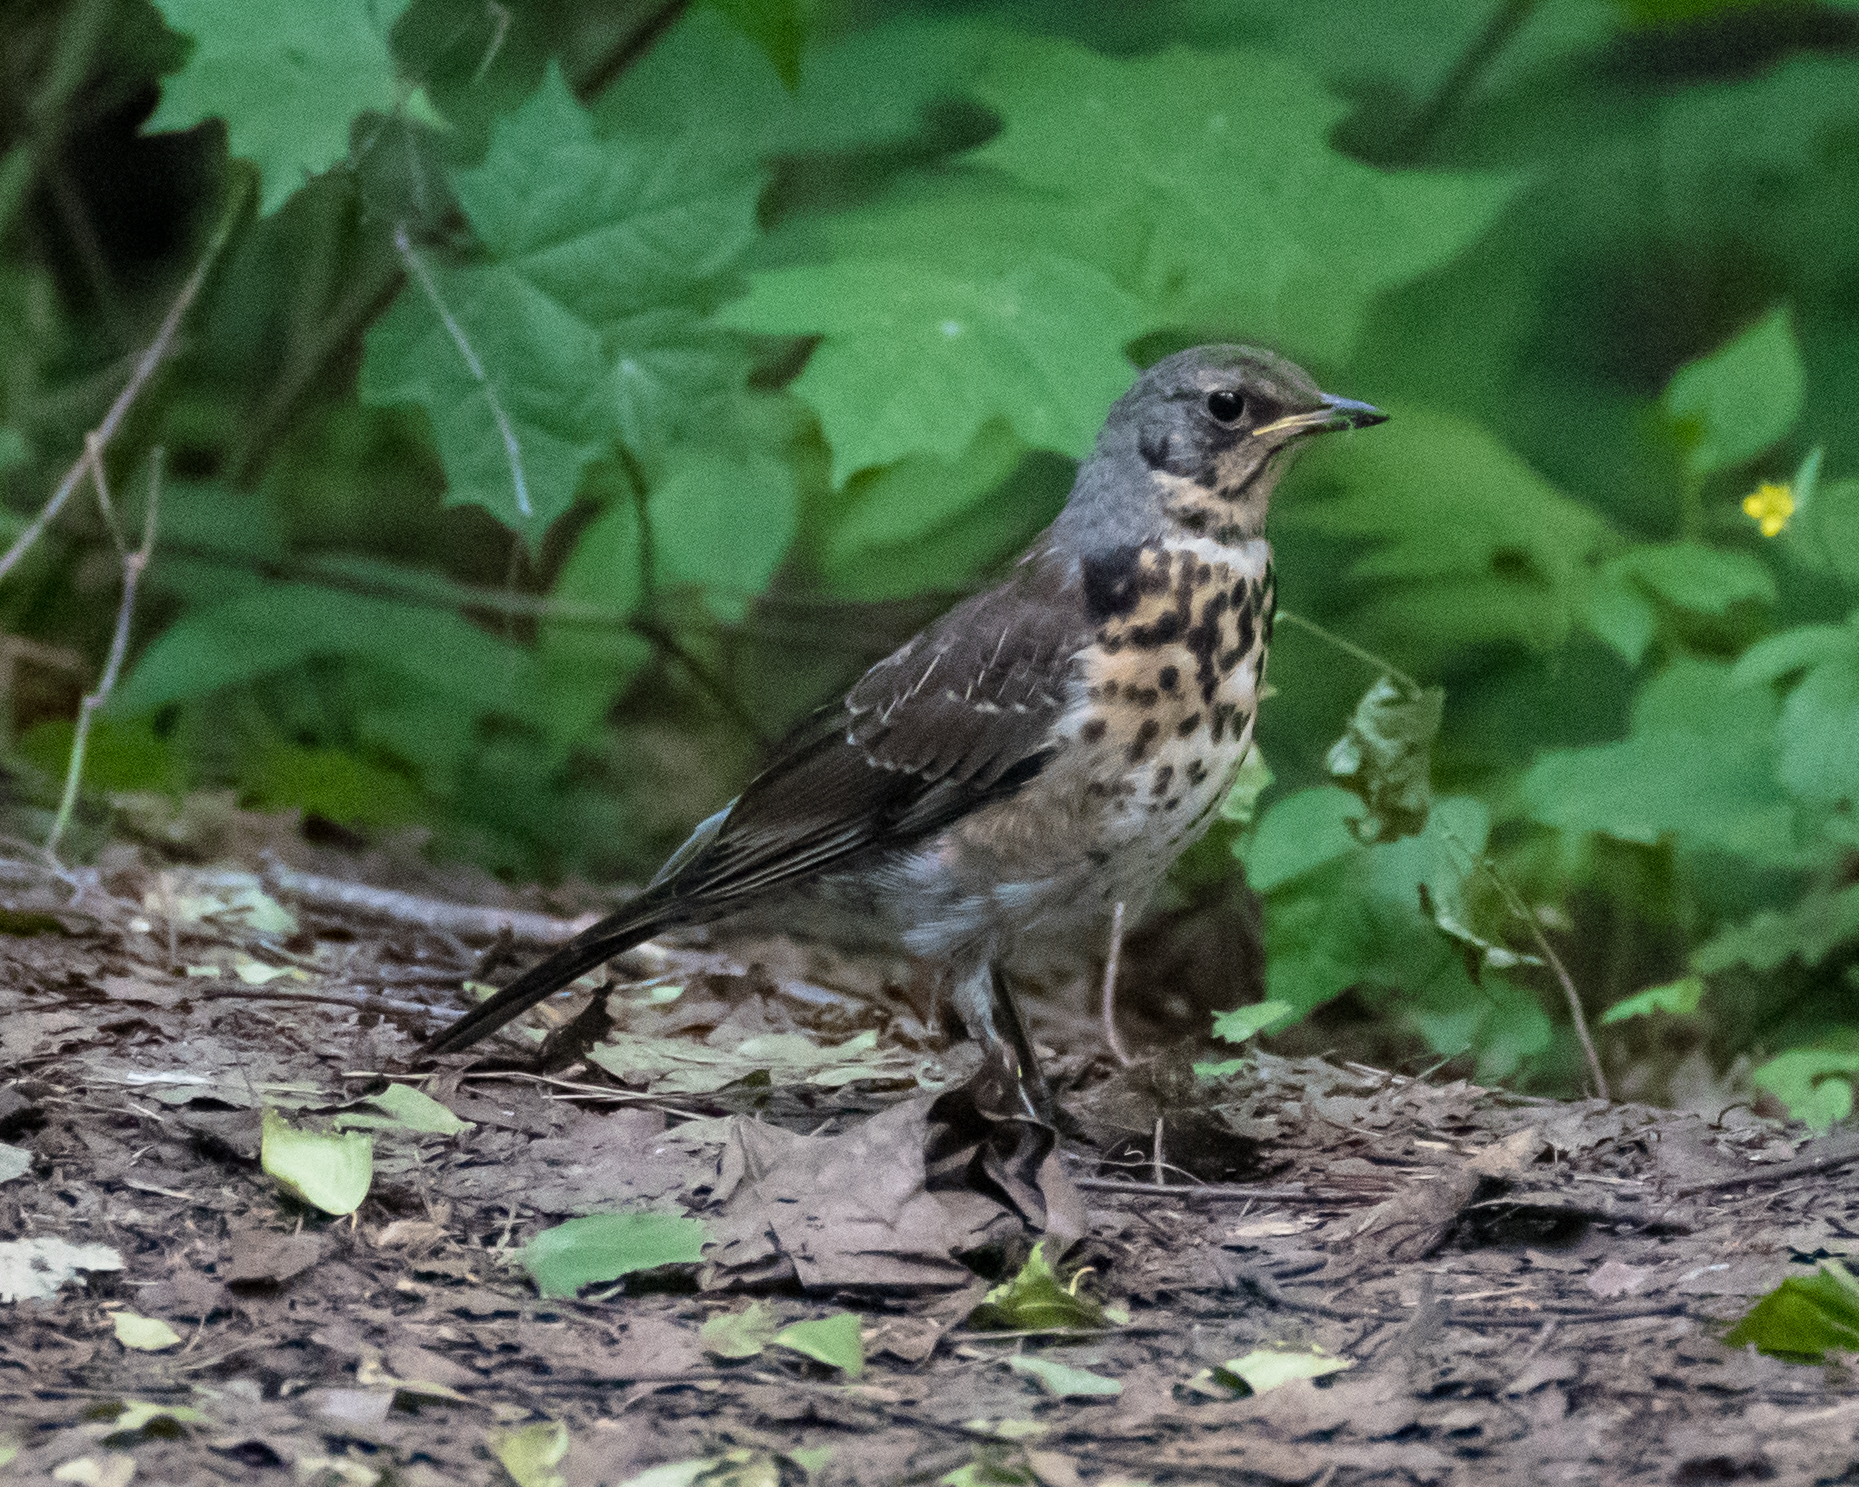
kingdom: Animalia
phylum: Chordata
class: Aves
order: Passeriformes
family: Turdidae
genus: Turdus
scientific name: Turdus pilaris
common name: Fieldfare
